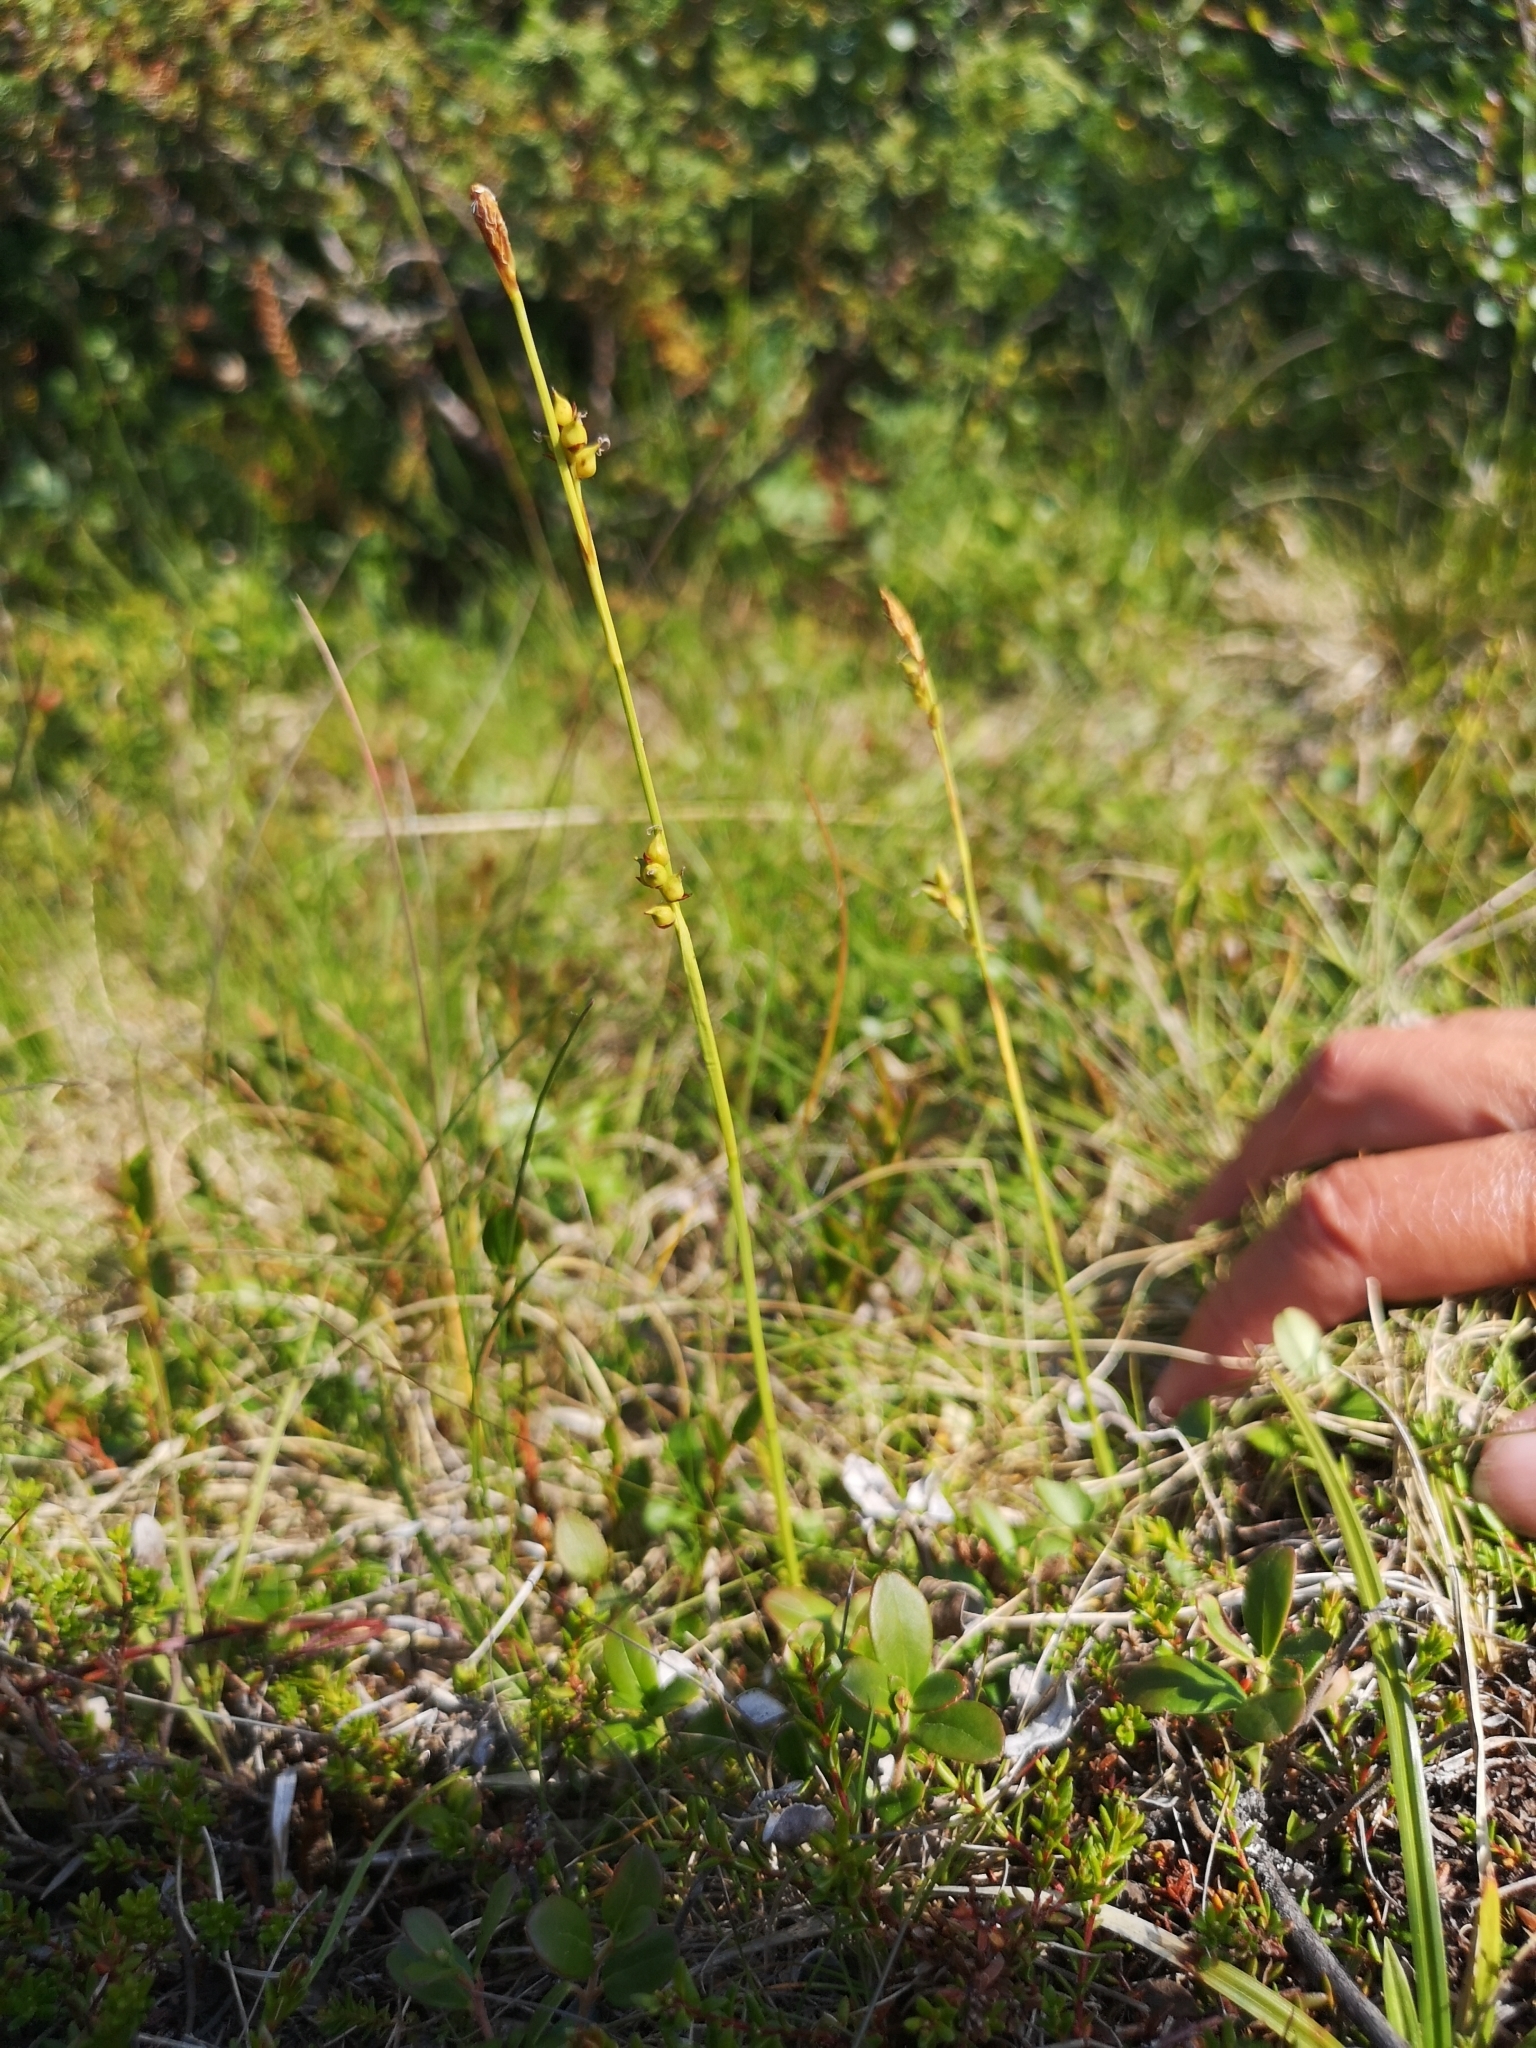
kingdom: Plantae
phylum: Tracheophyta
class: Liliopsida
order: Poales
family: Cyperaceae
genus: Carex
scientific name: Carex vaginata
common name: Sheathed sedge
